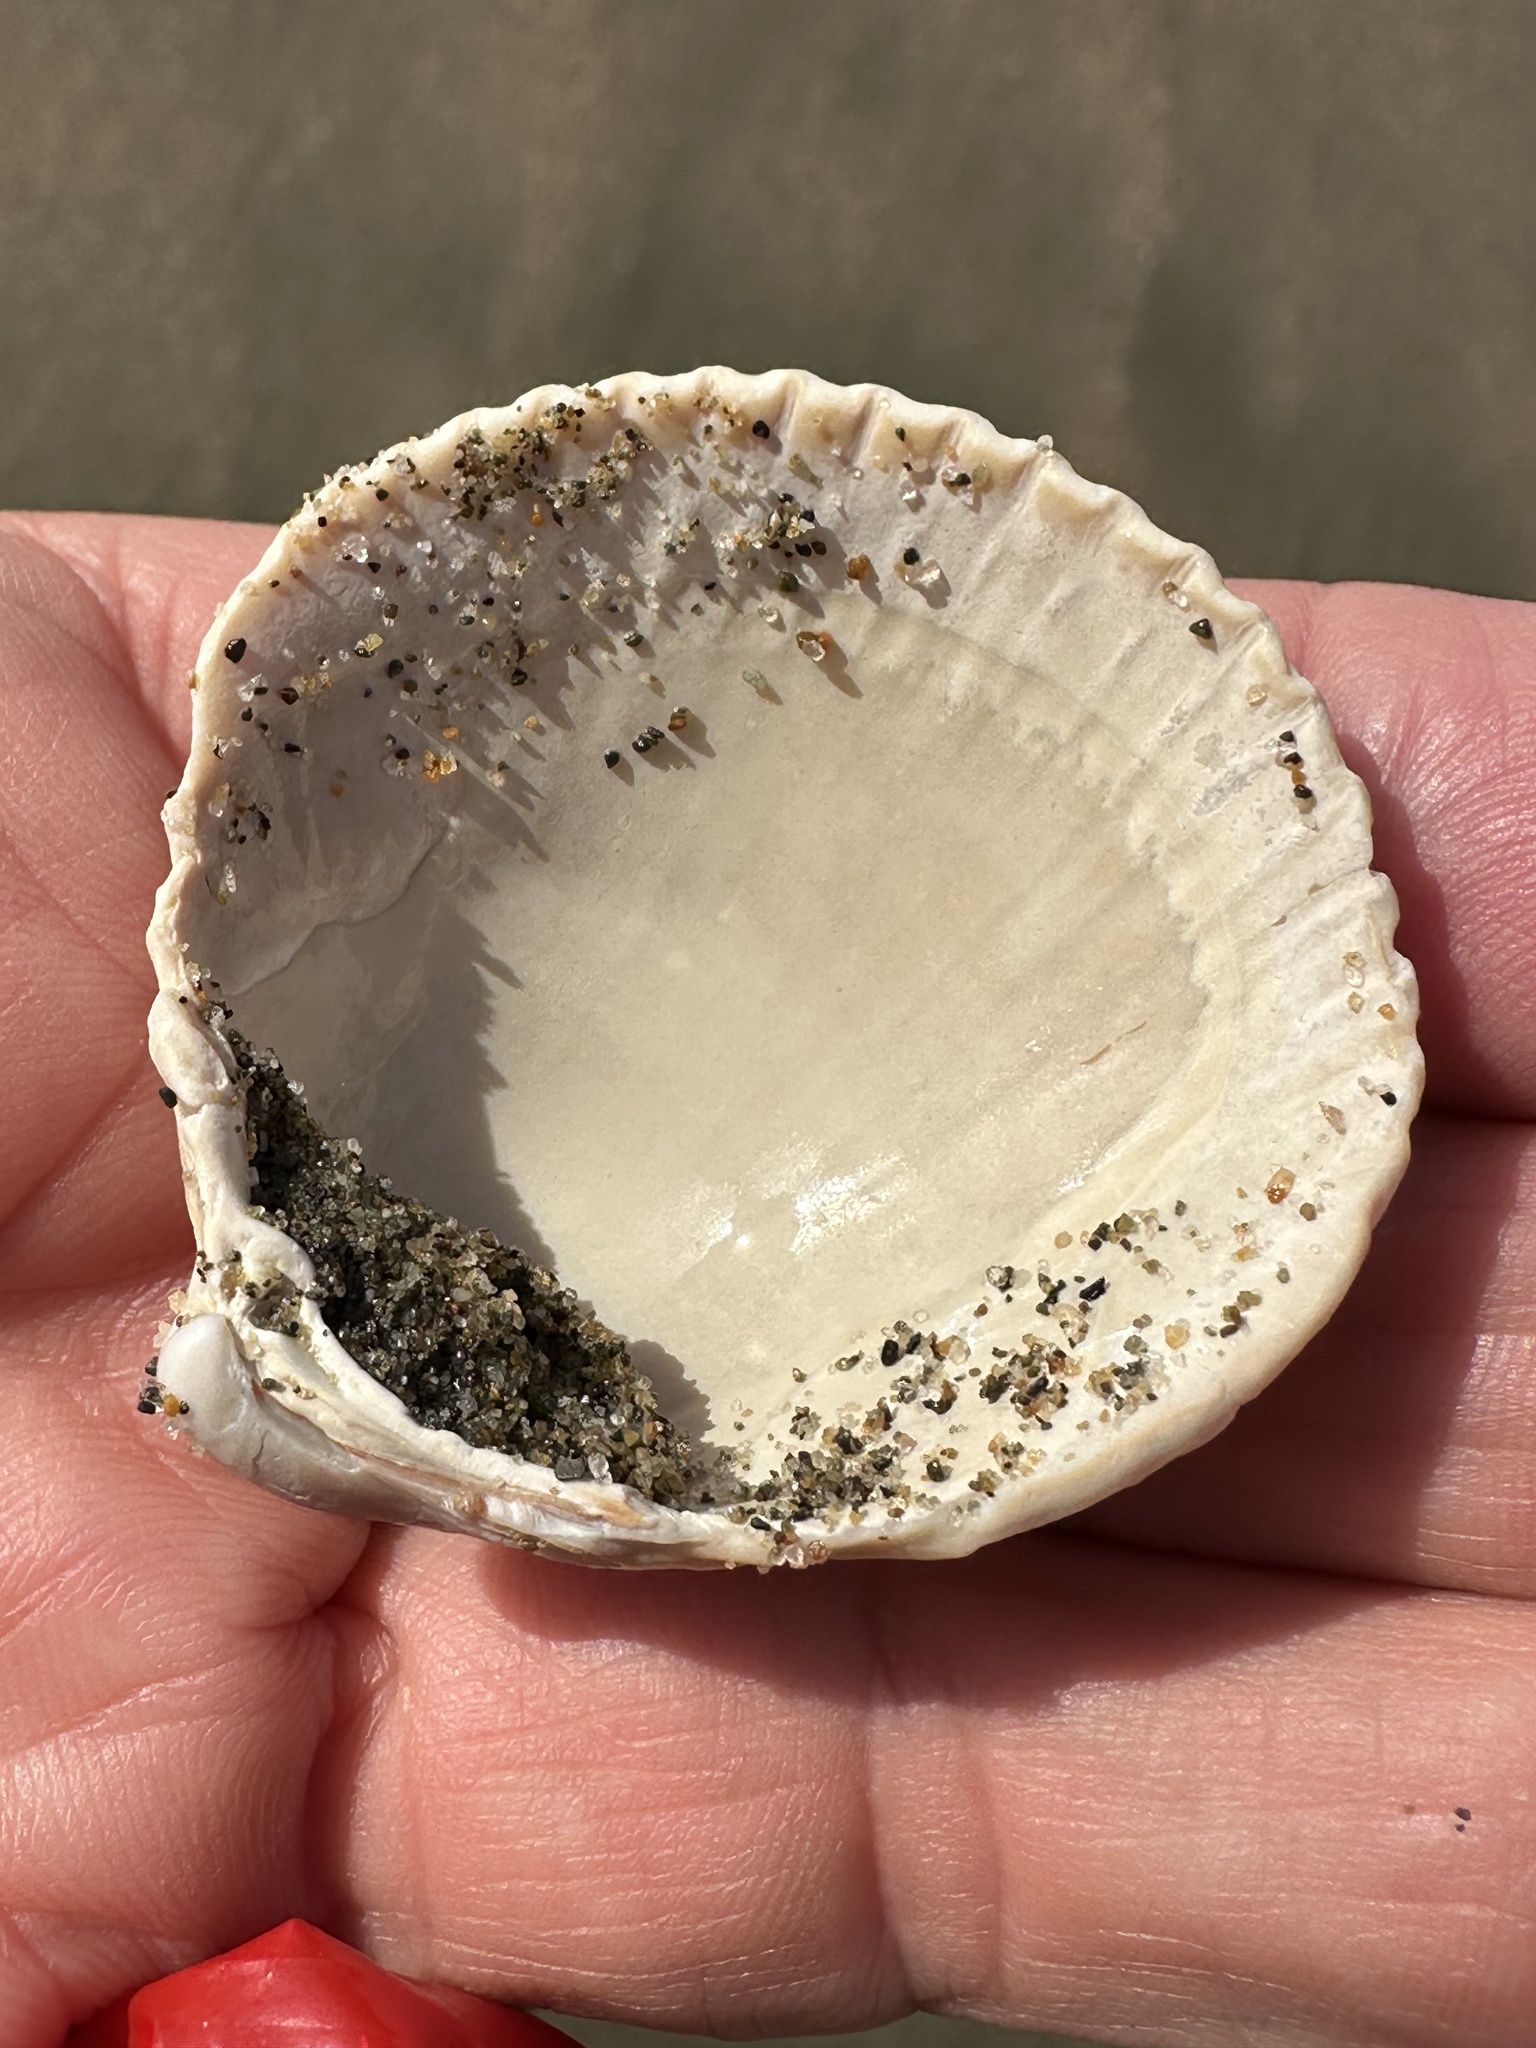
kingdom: Animalia
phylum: Mollusca
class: Bivalvia
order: Cardiida
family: Cardiidae
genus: Clinocardium
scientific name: Clinocardium nuttallii
